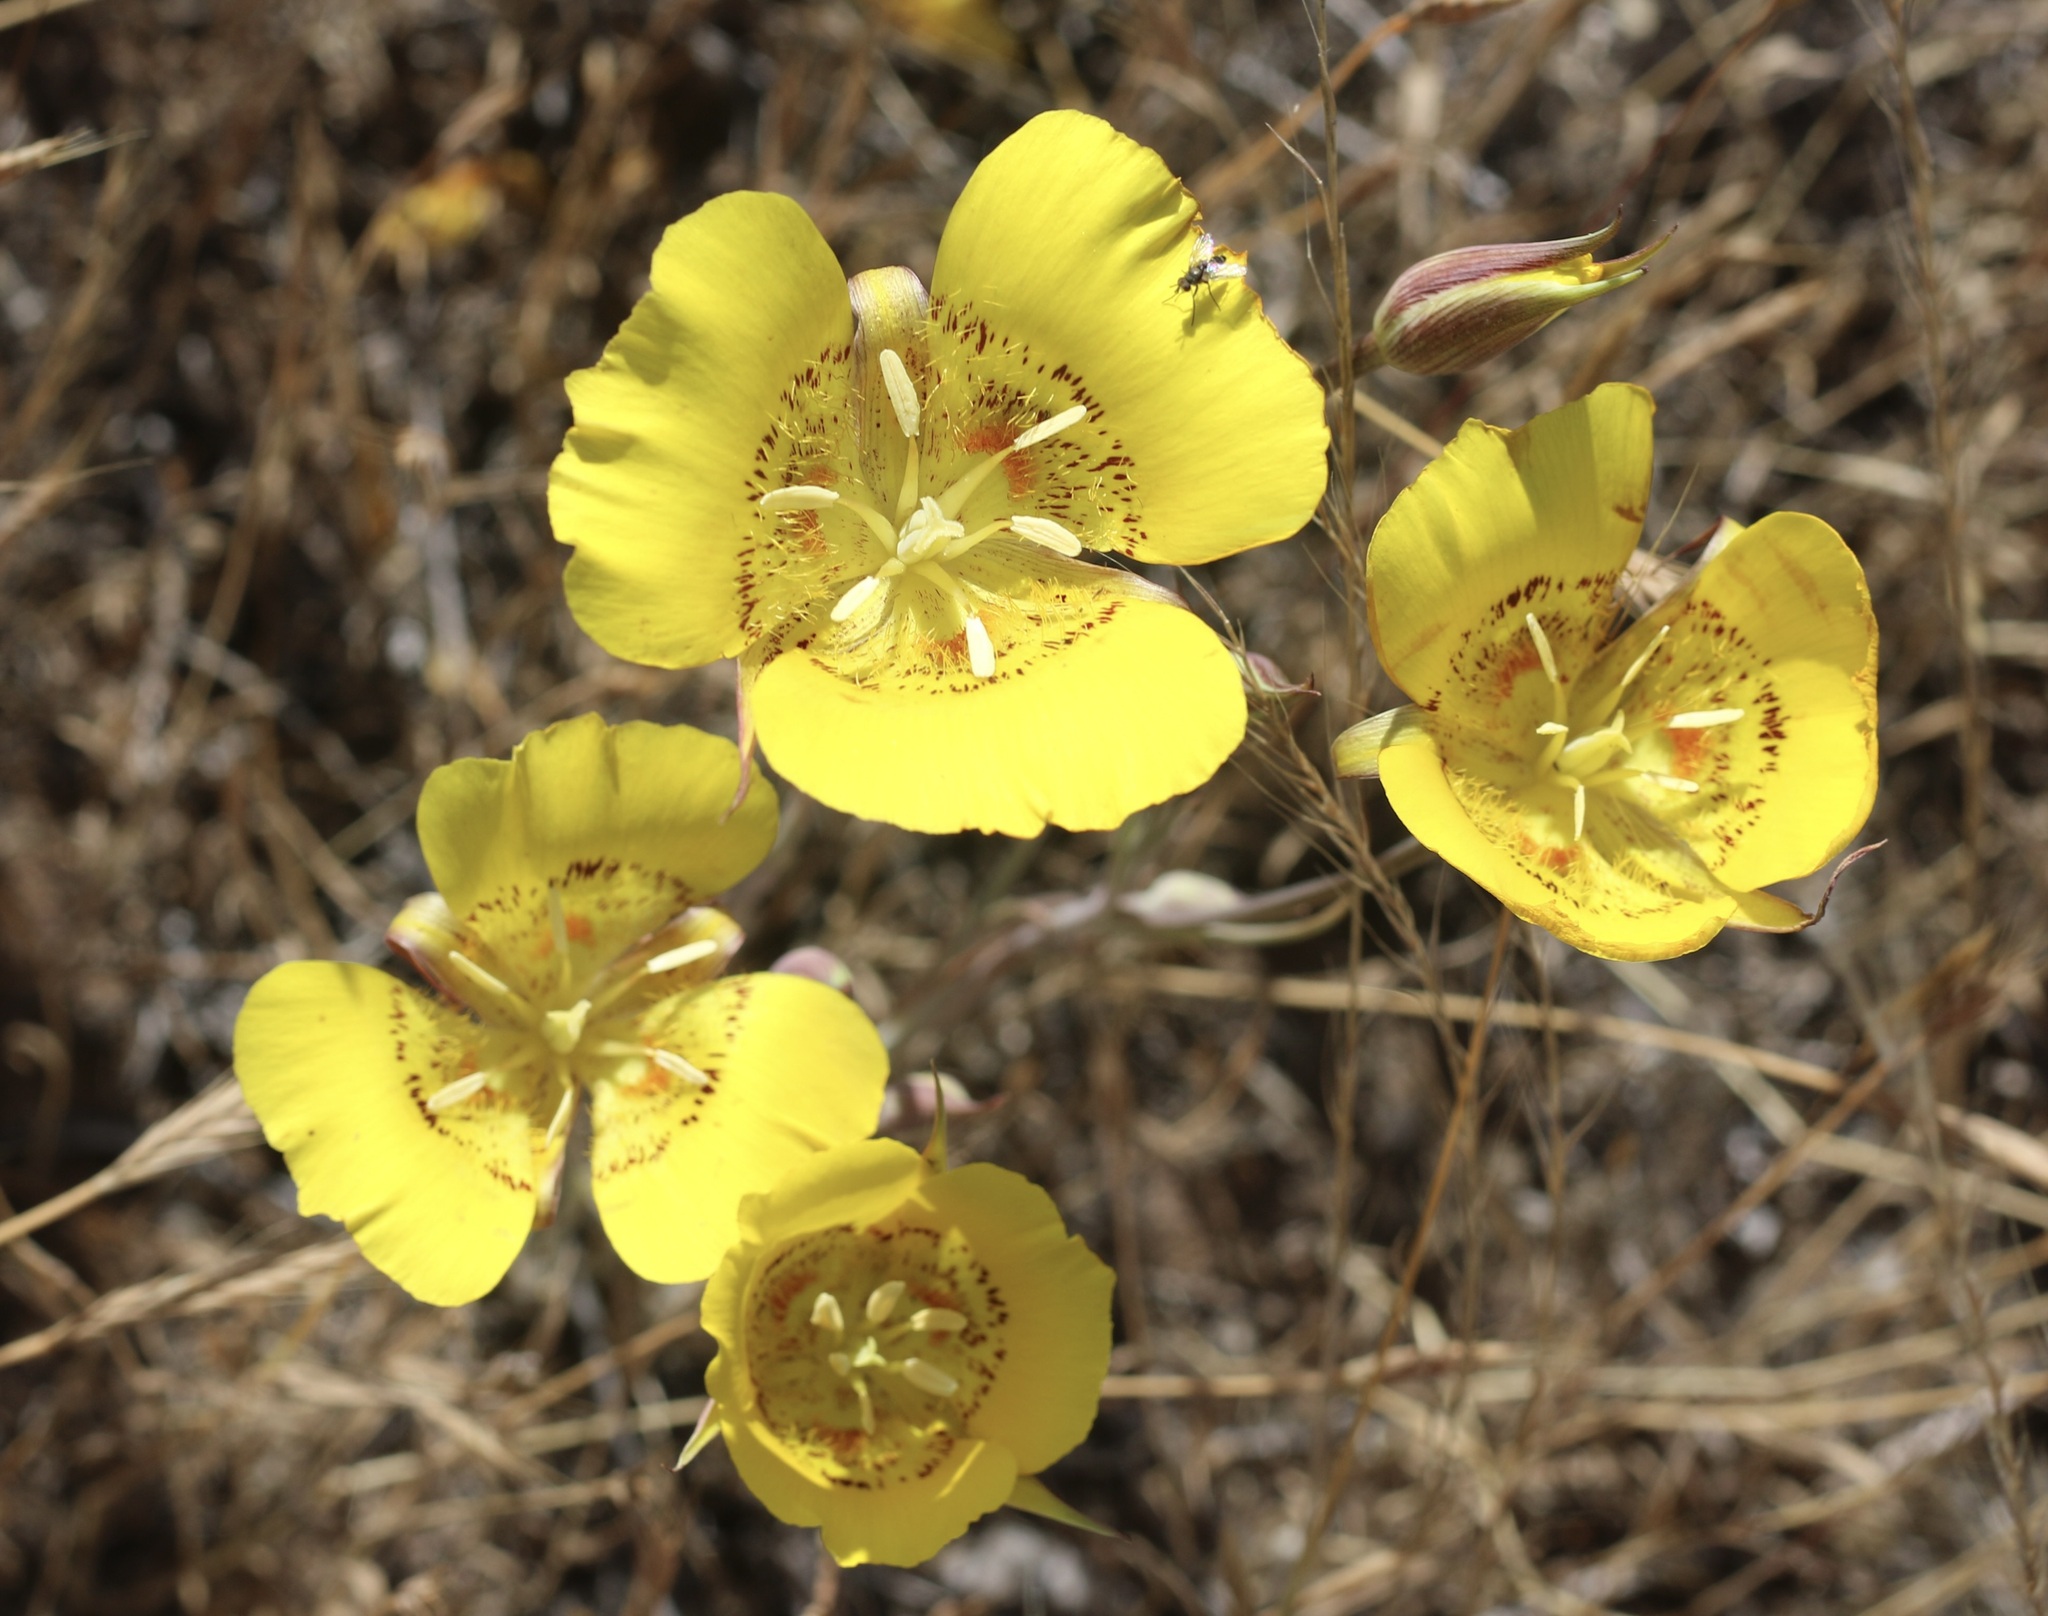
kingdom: Plantae
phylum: Tracheophyta
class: Liliopsida
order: Liliales
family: Liliaceae
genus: Calochortus
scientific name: Calochortus luteus
